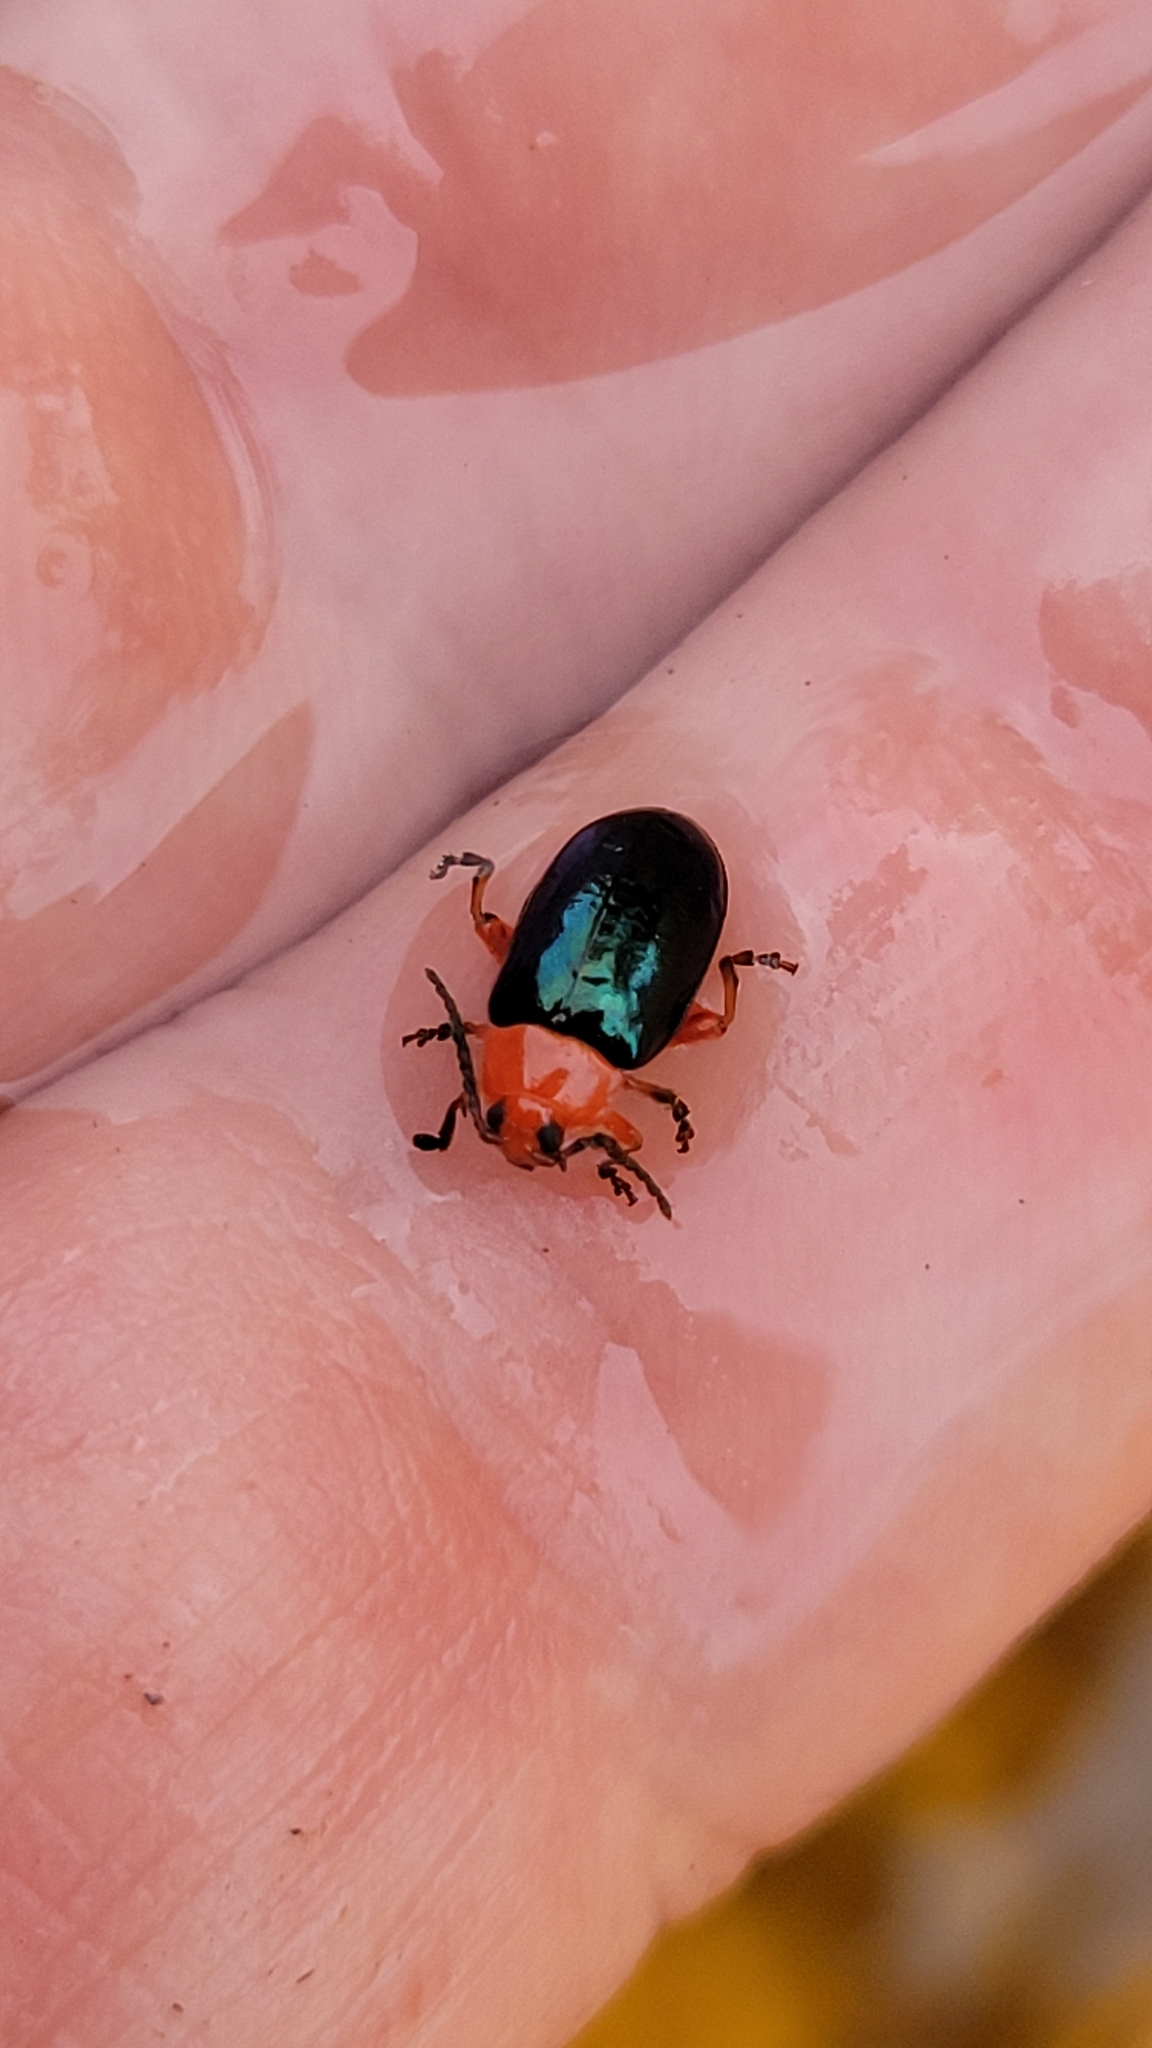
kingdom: Animalia
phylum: Arthropoda
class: Insecta
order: Coleoptera
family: Chrysomelidae
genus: Asphaera
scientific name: Asphaera lustrans
